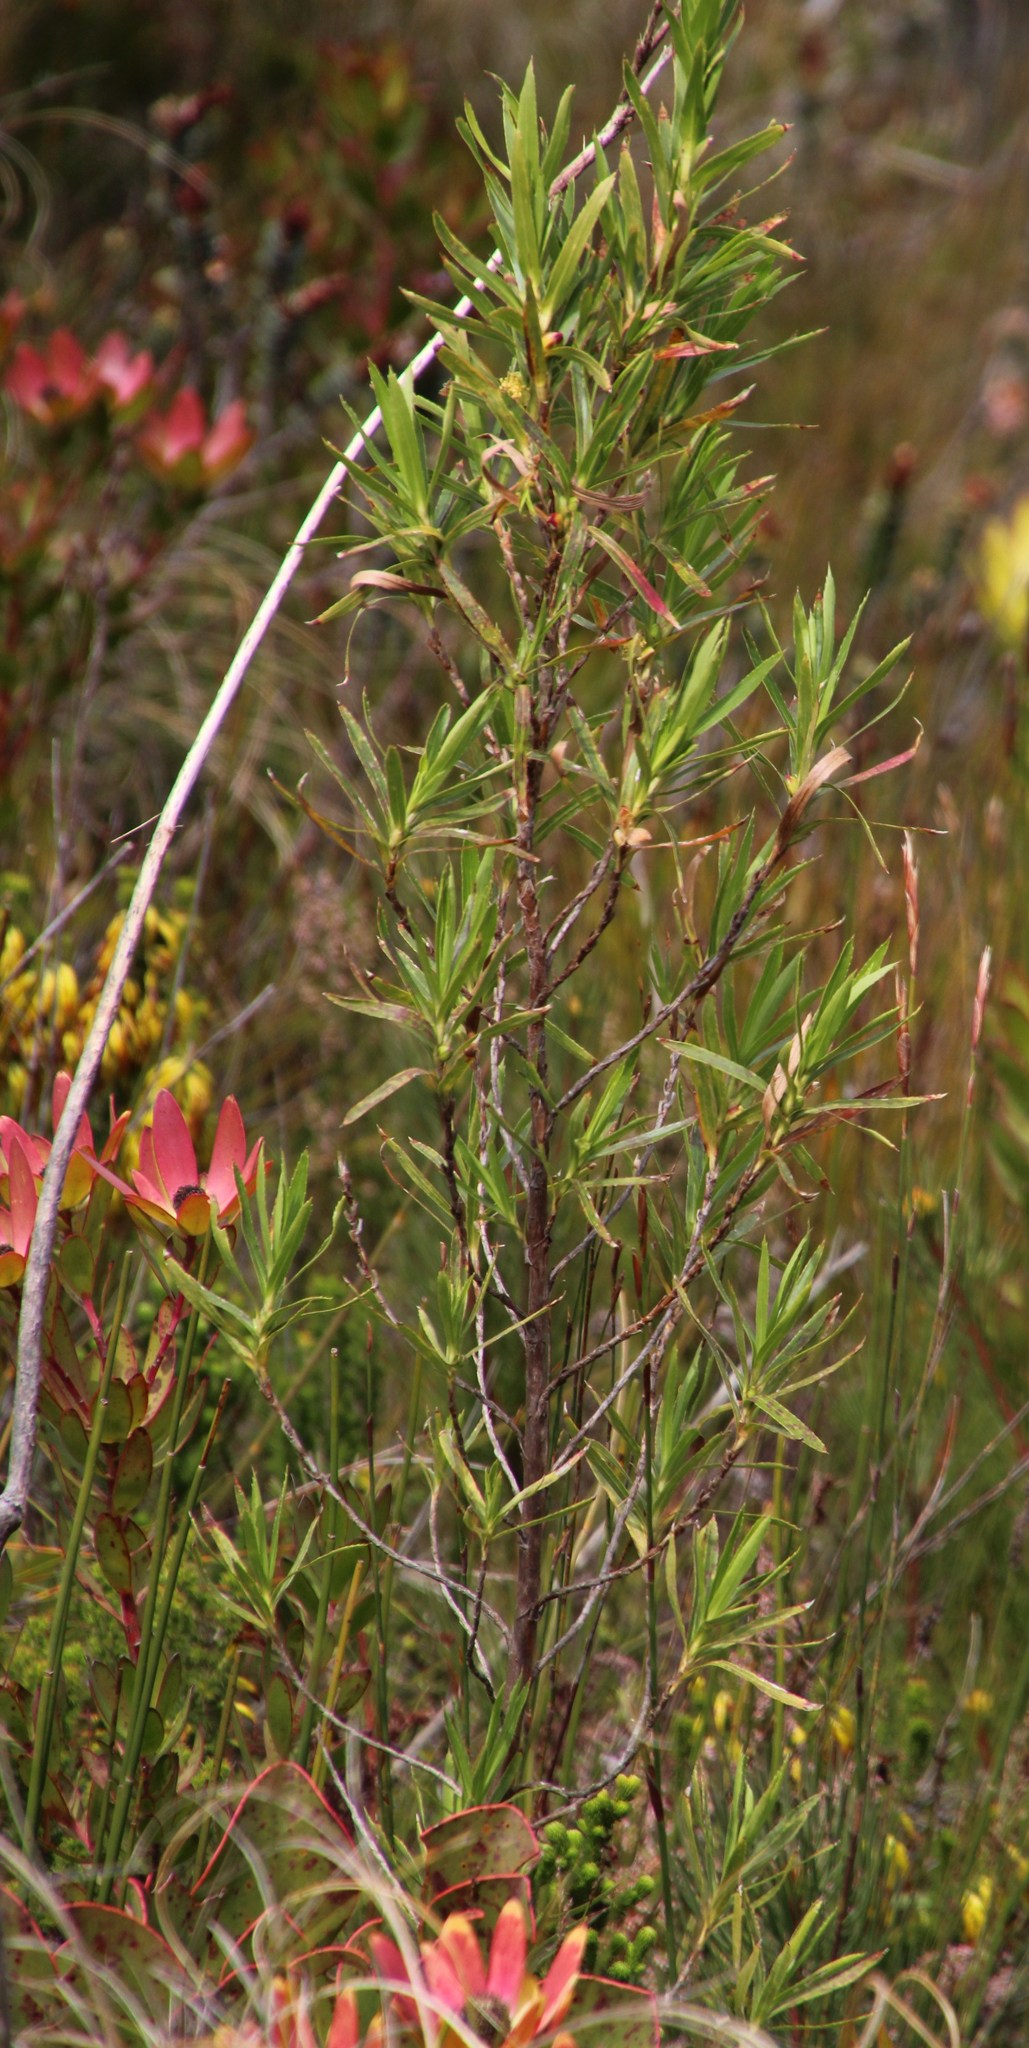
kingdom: Plantae
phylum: Tracheophyta
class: Magnoliopsida
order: Rosales
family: Rosaceae
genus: Cliffortia
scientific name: Cliffortia heterophylla
